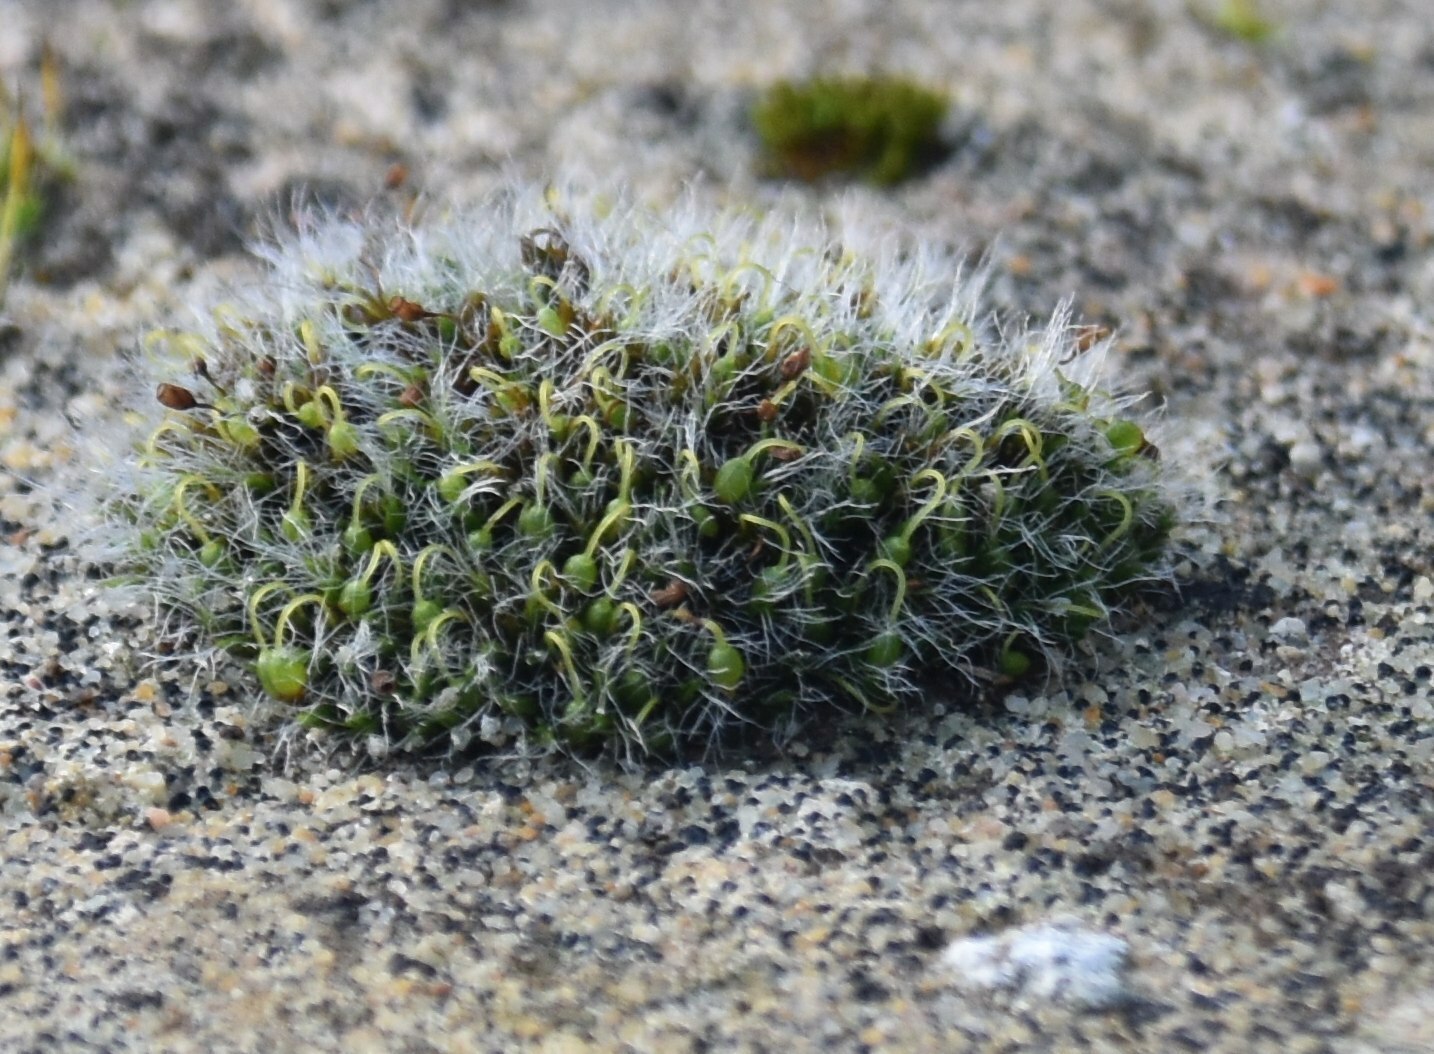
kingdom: Plantae
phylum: Bryophyta
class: Bryopsida
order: Grimmiales
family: Grimmiaceae
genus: Grimmia
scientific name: Grimmia pulvinata
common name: Grey-cushioned grimmia
